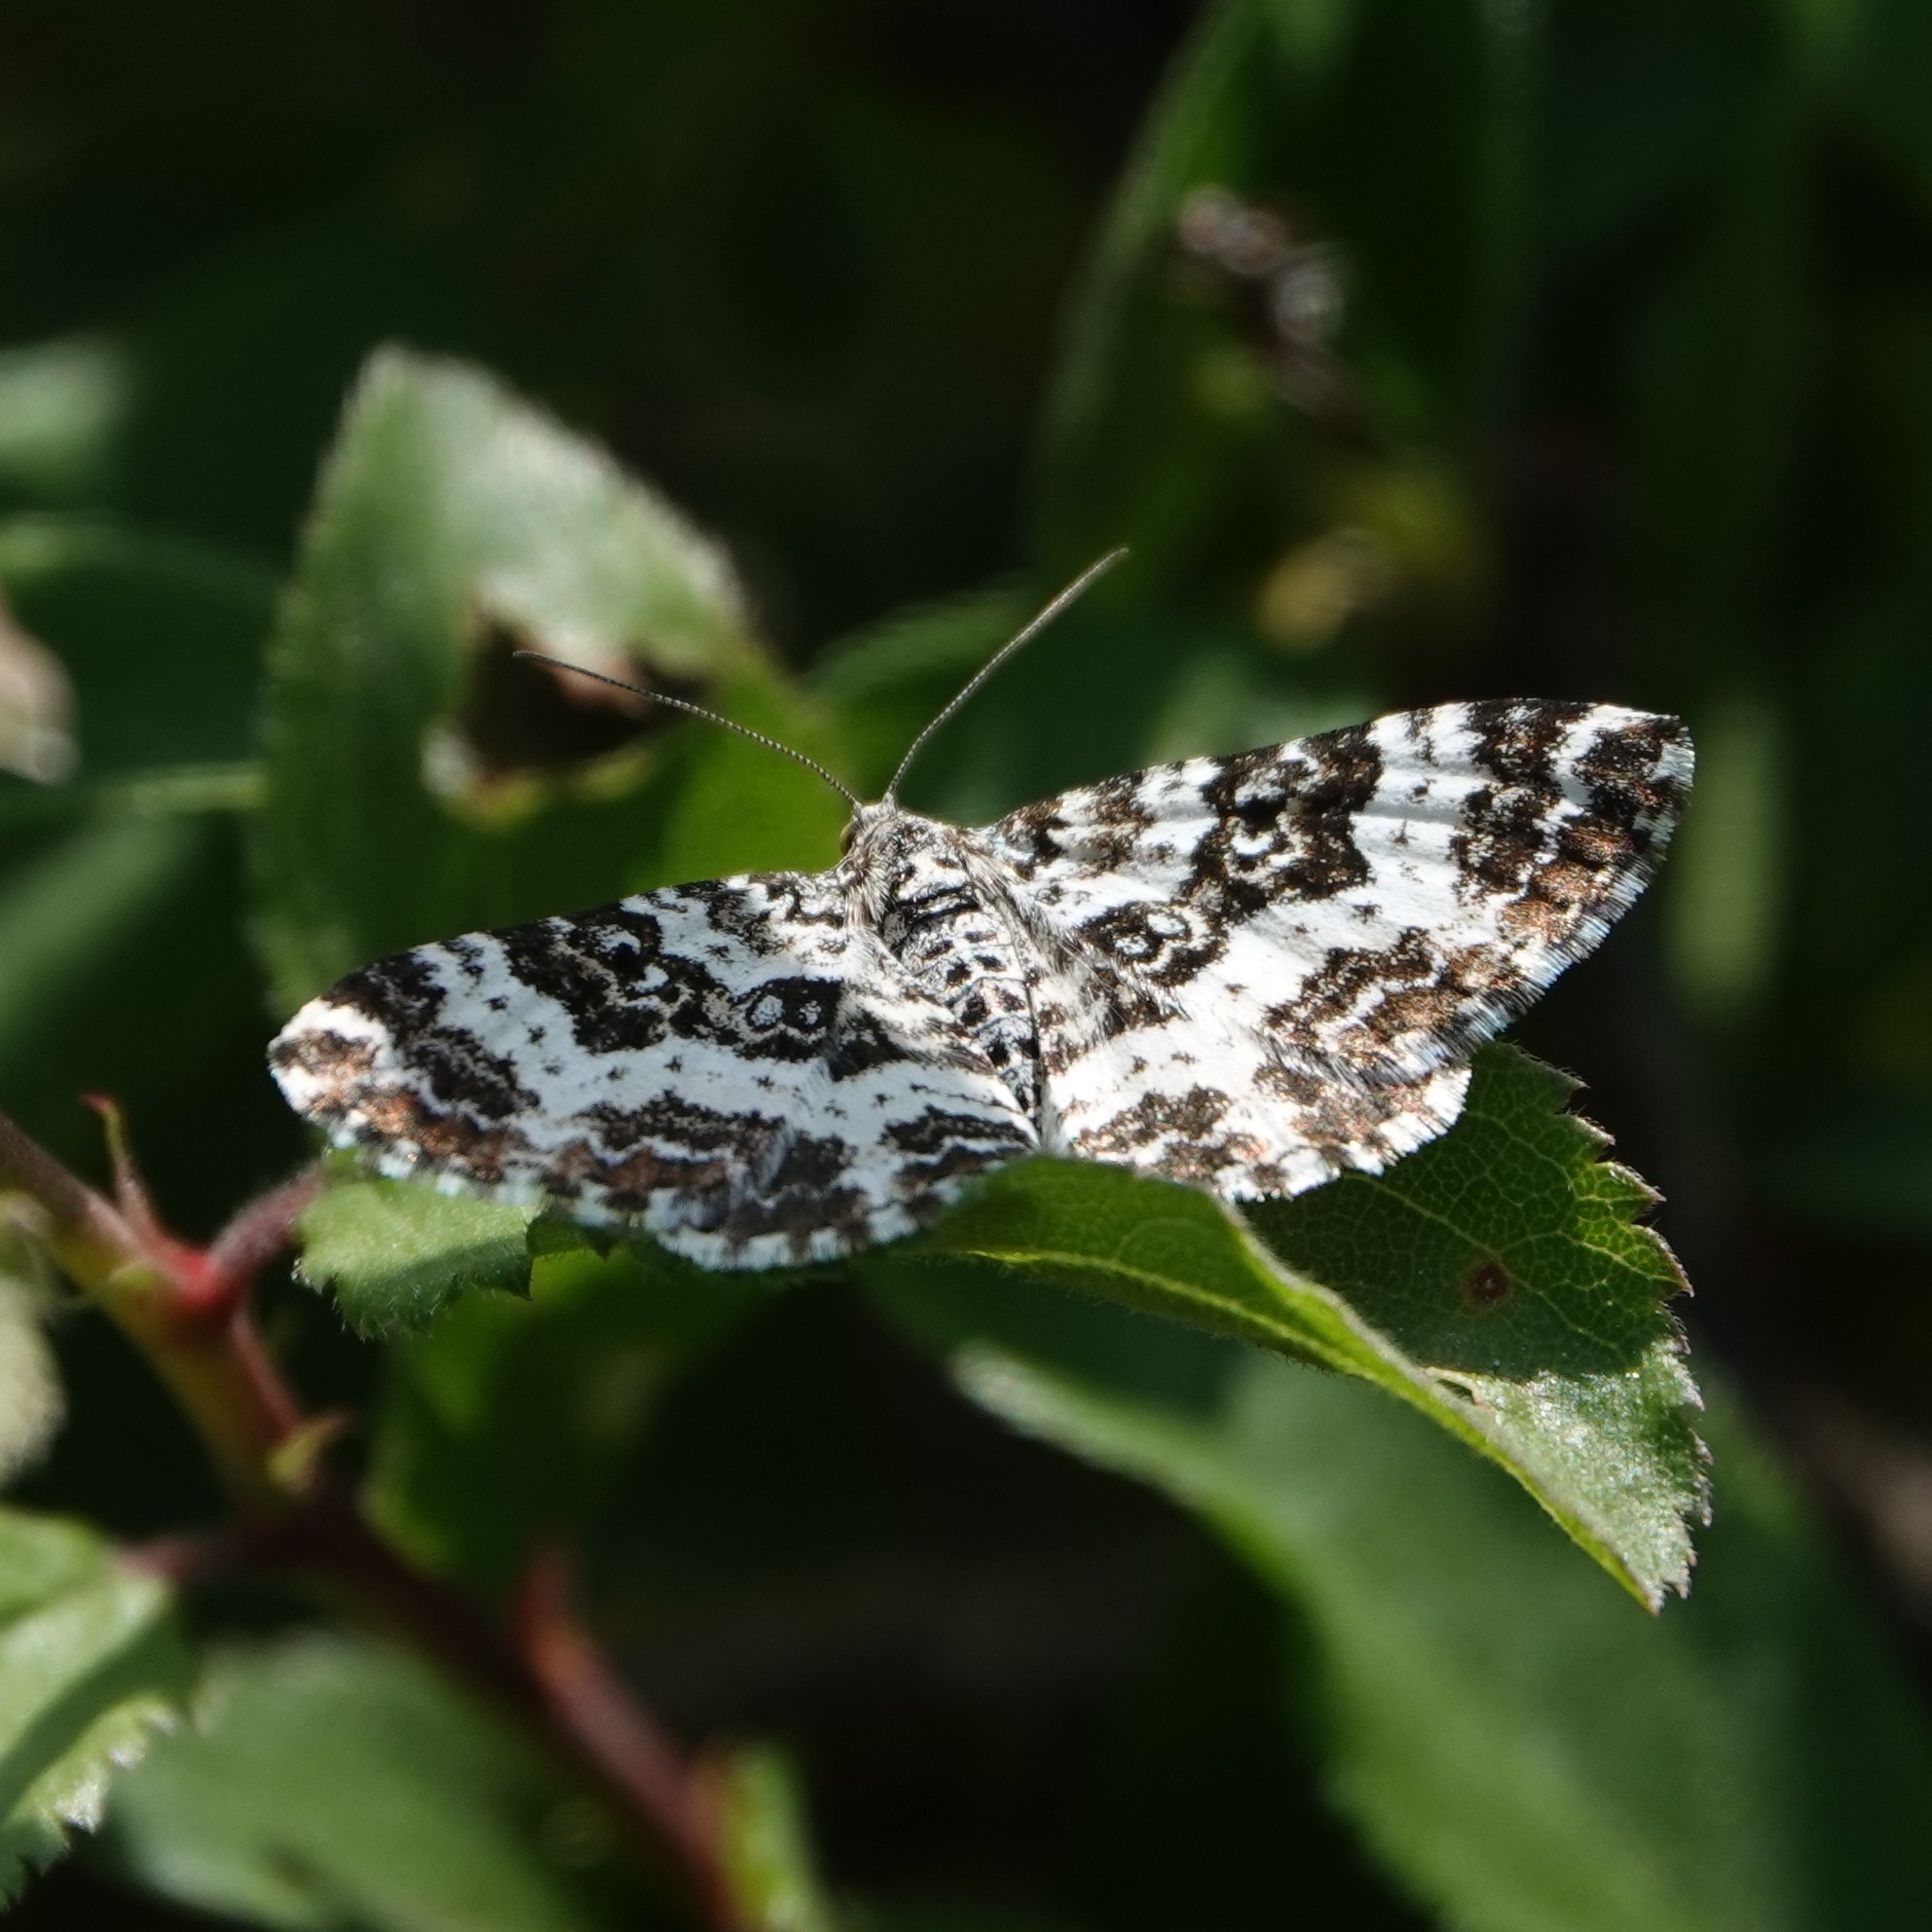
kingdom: Animalia
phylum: Arthropoda
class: Insecta
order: Lepidoptera
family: Geometridae
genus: Epirrhoe
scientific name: Epirrhoe tristata
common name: Small argent & sable
